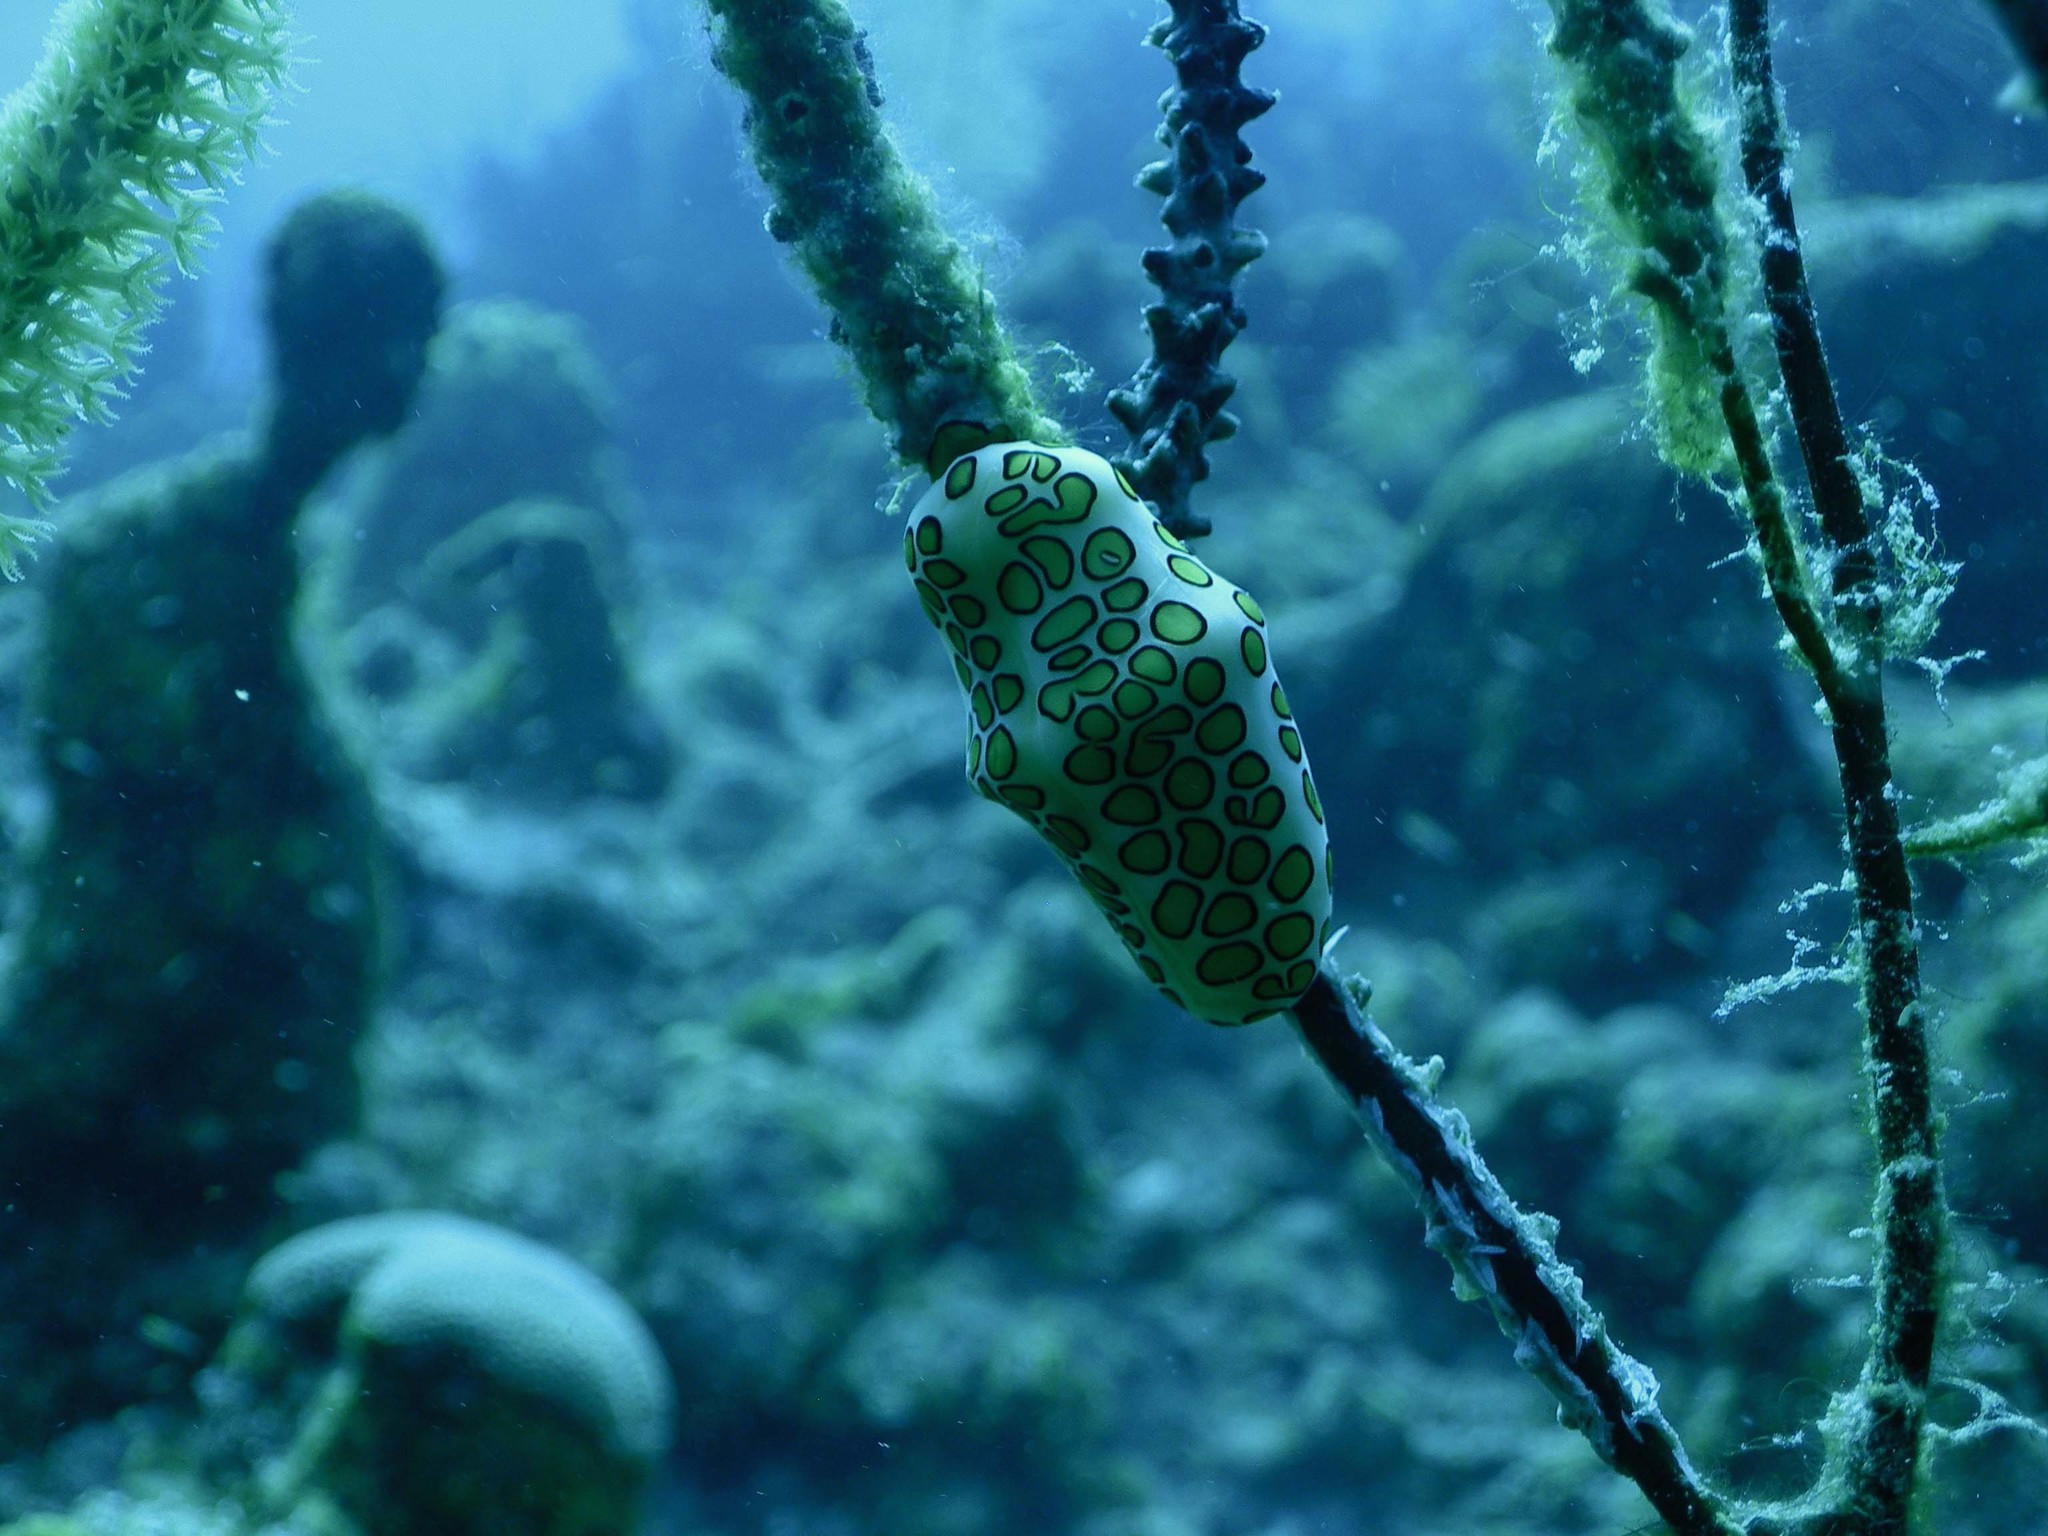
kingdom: Animalia
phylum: Mollusca
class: Gastropoda
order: Littorinimorpha
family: Ovulidae
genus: Cyphoma
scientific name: Cyphoma gibbosum
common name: Flamingo tongue
